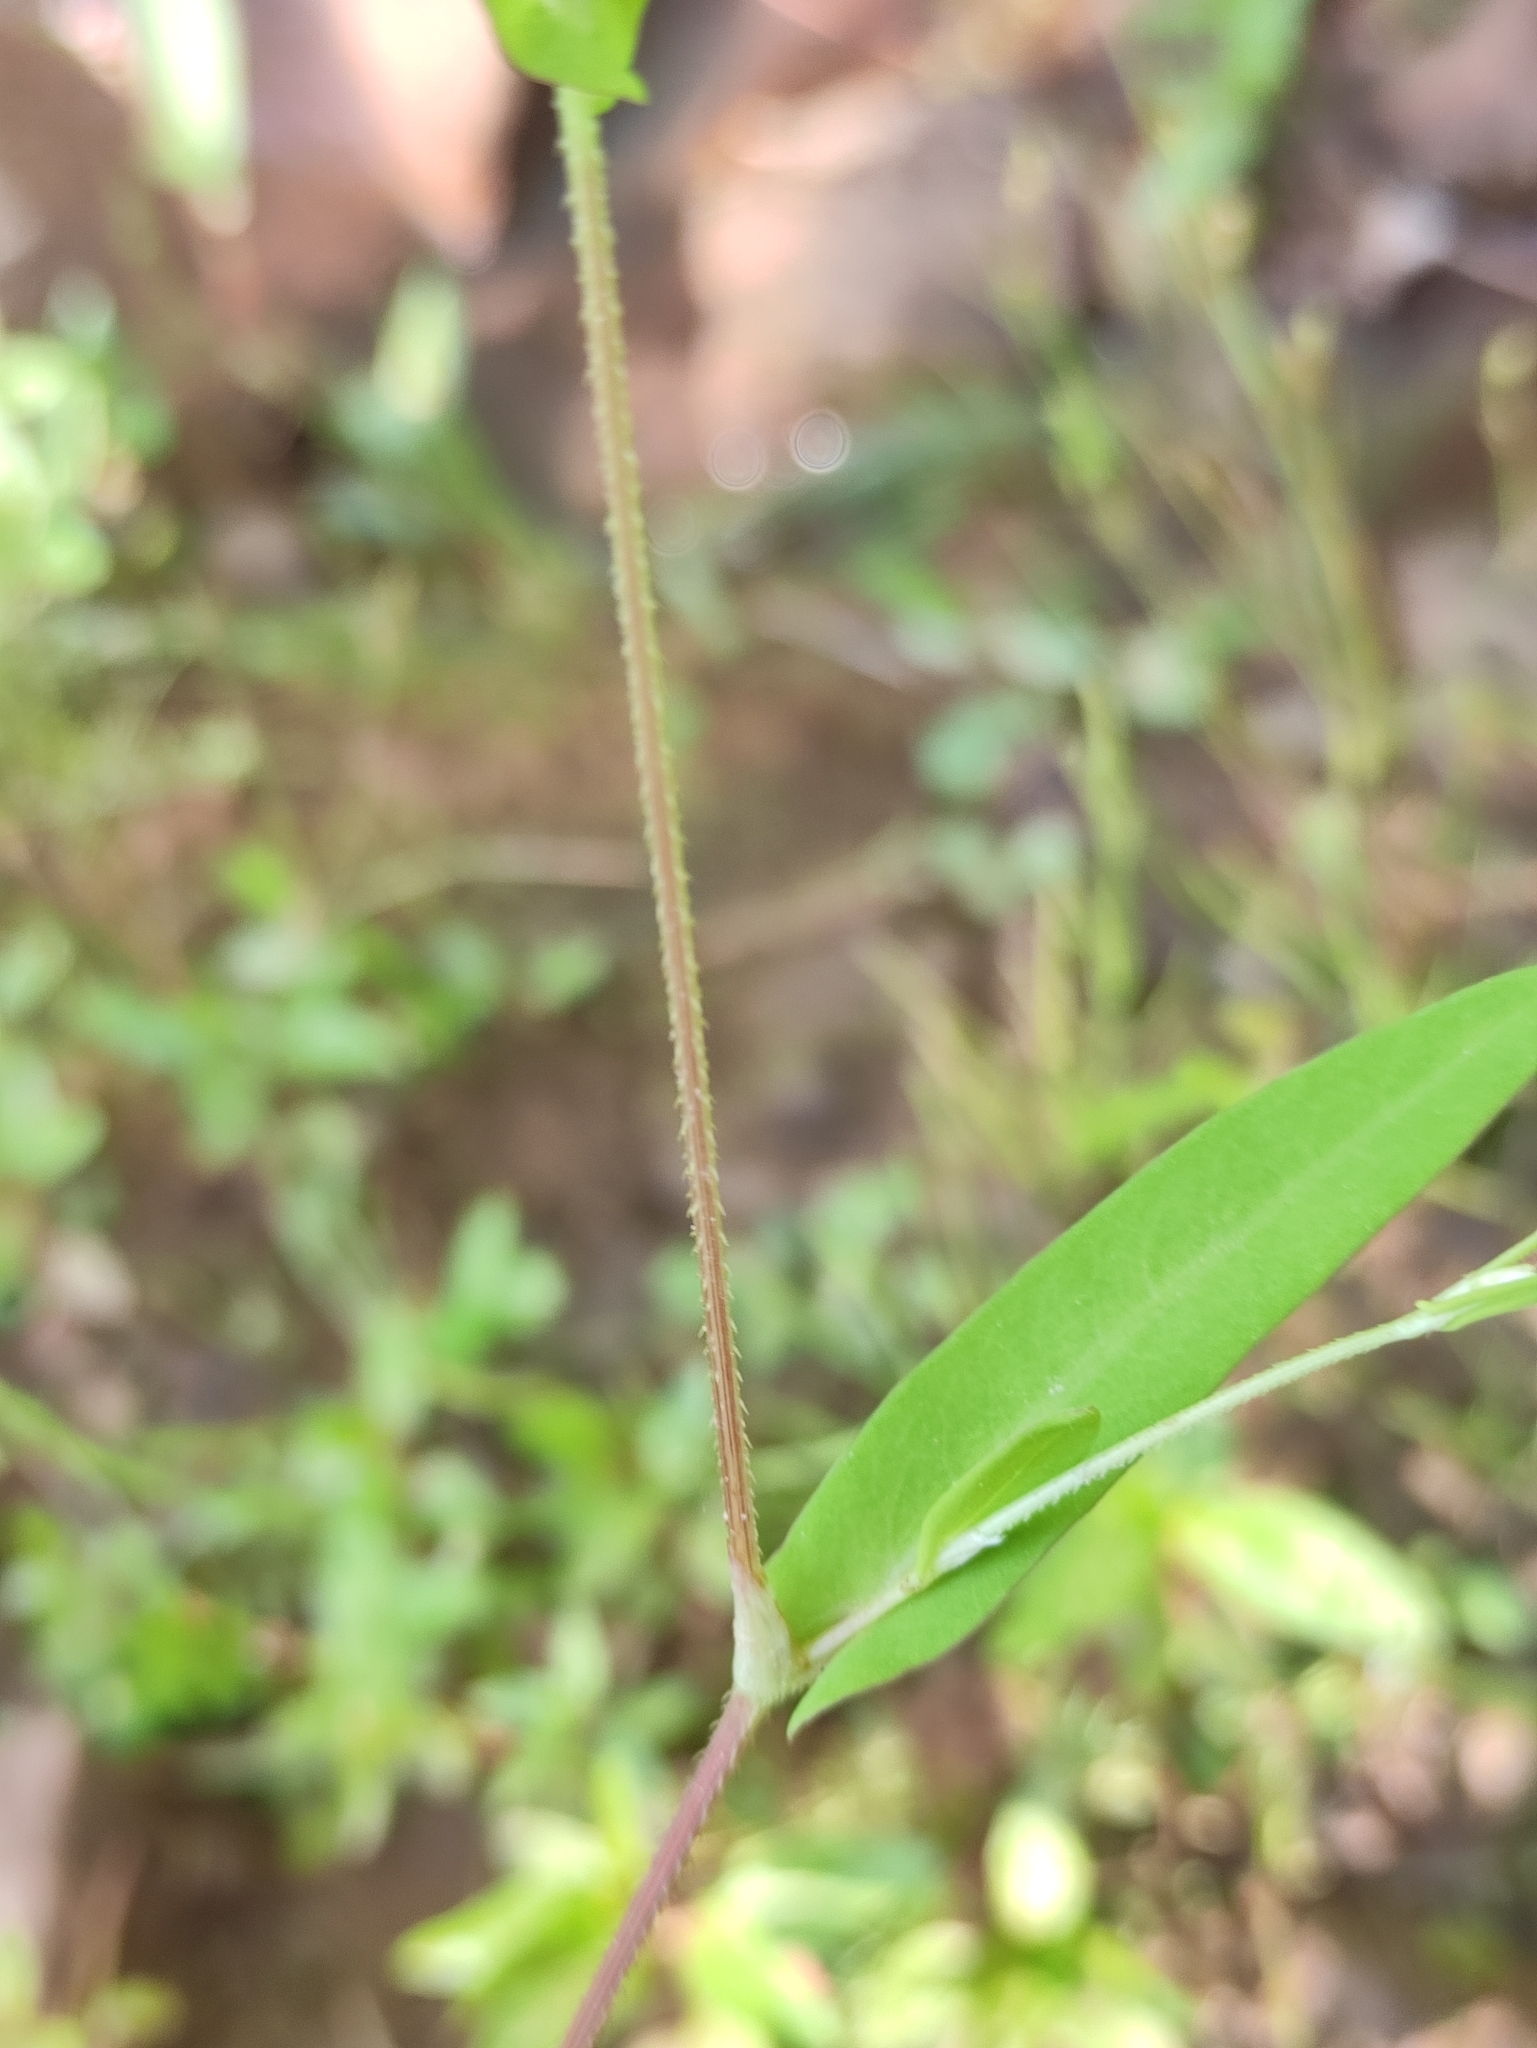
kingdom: Plantae
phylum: Tracheophyta
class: Magnoliopsida
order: Caryophyllales
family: Polygonaceae
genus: Persicaria
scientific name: Persicaria sagittata
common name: American tearthumb
